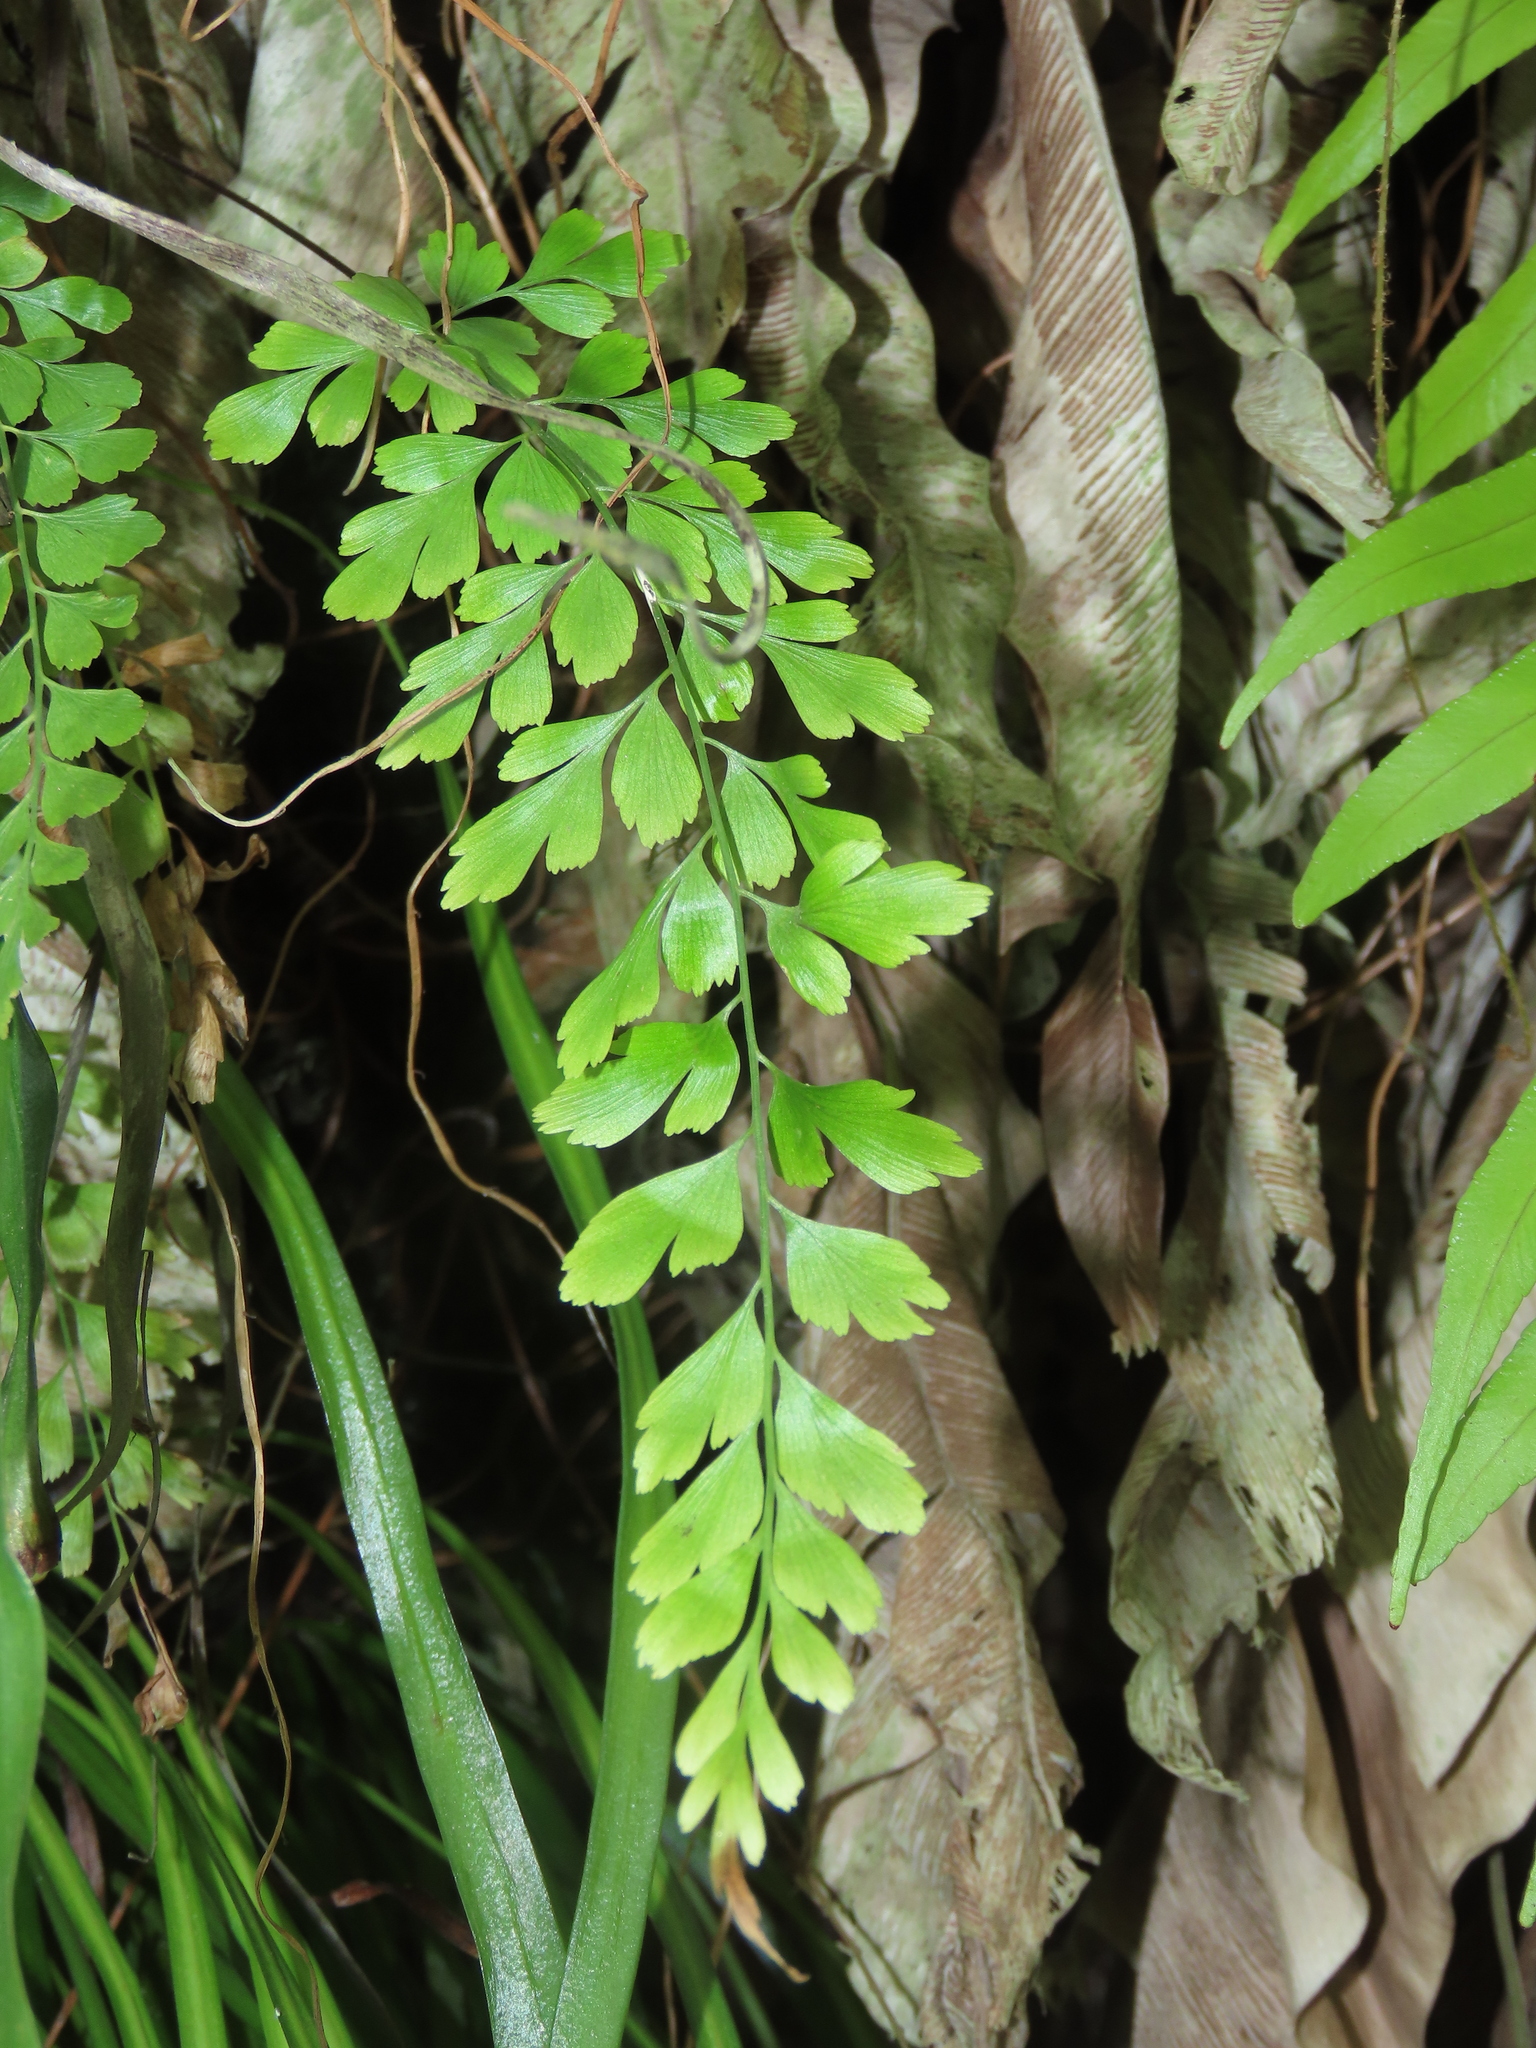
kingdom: Plantae
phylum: Tracheophyta
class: Polypodiopsida
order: Polypodiales
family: Aspleniaceae
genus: Asplenium
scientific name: Asplenium pseudolaserpitiifolium
